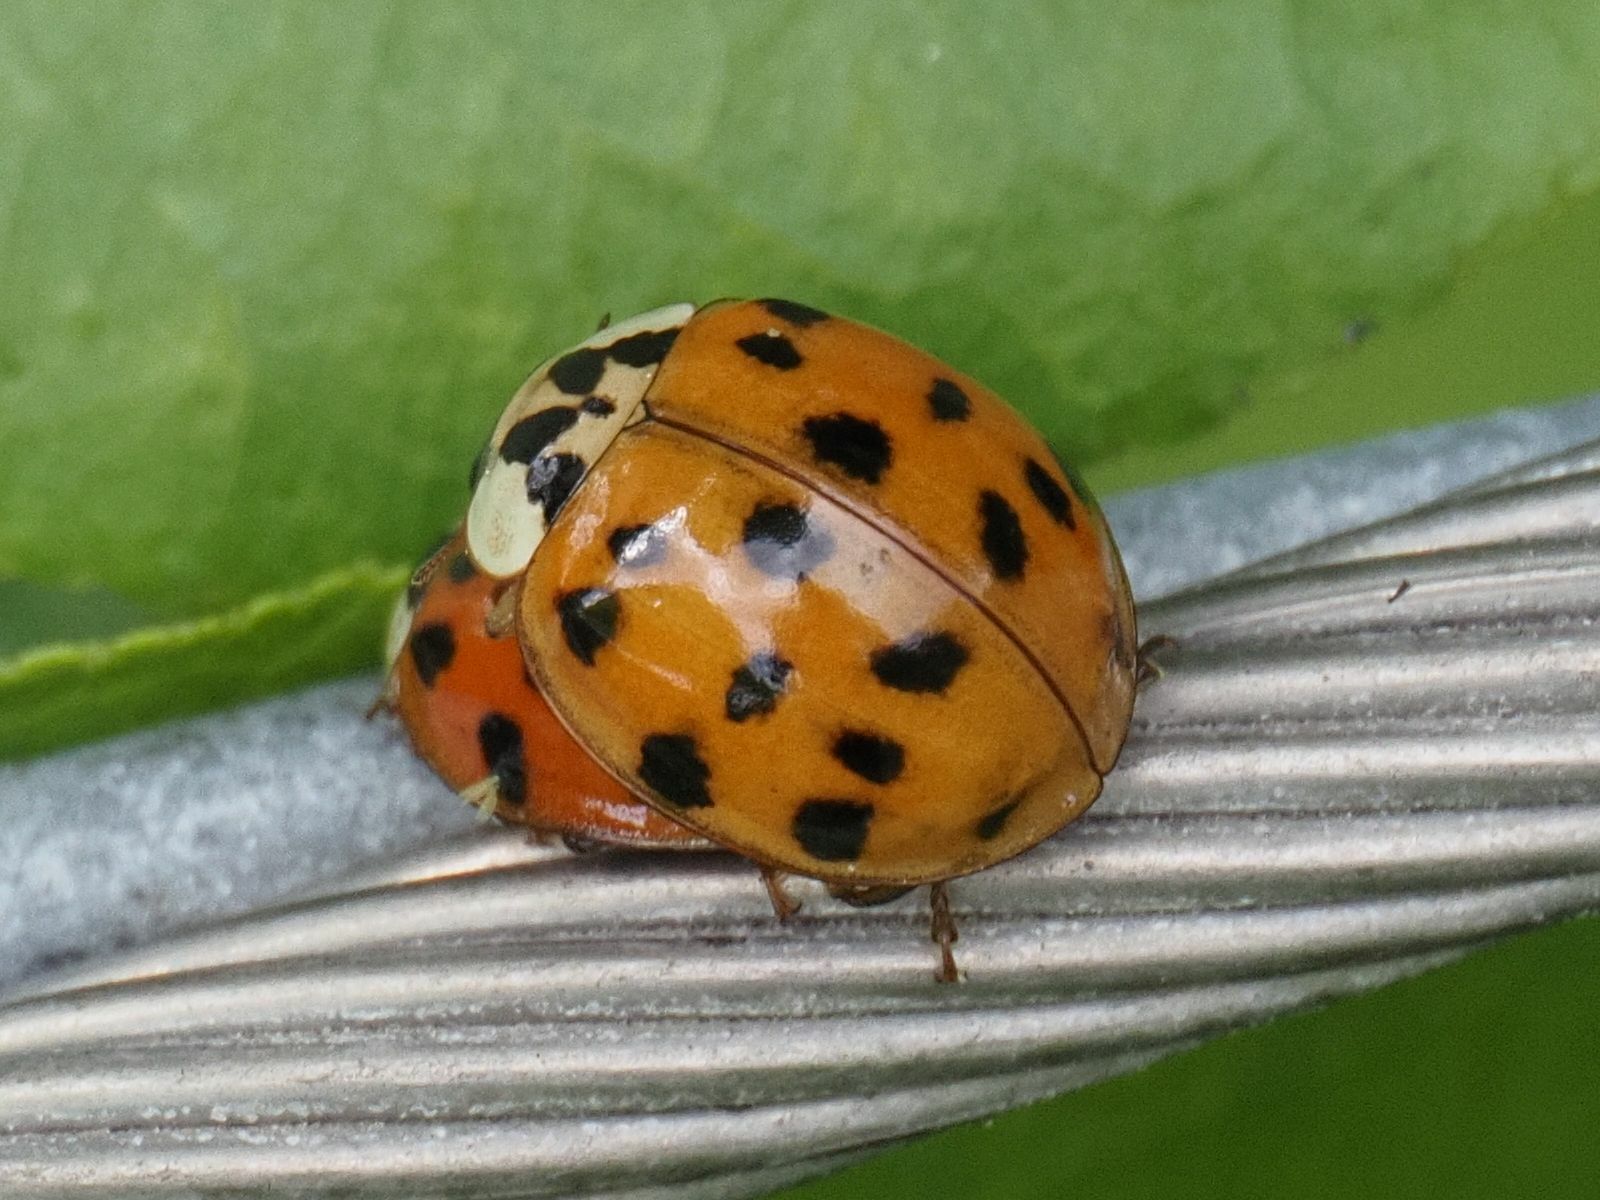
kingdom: Animalia
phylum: Arthropoda
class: Insecta
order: Coleoptera
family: Coccinellidae
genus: Harmonia
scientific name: Harmonia axyridis
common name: Harlequin ladybird
